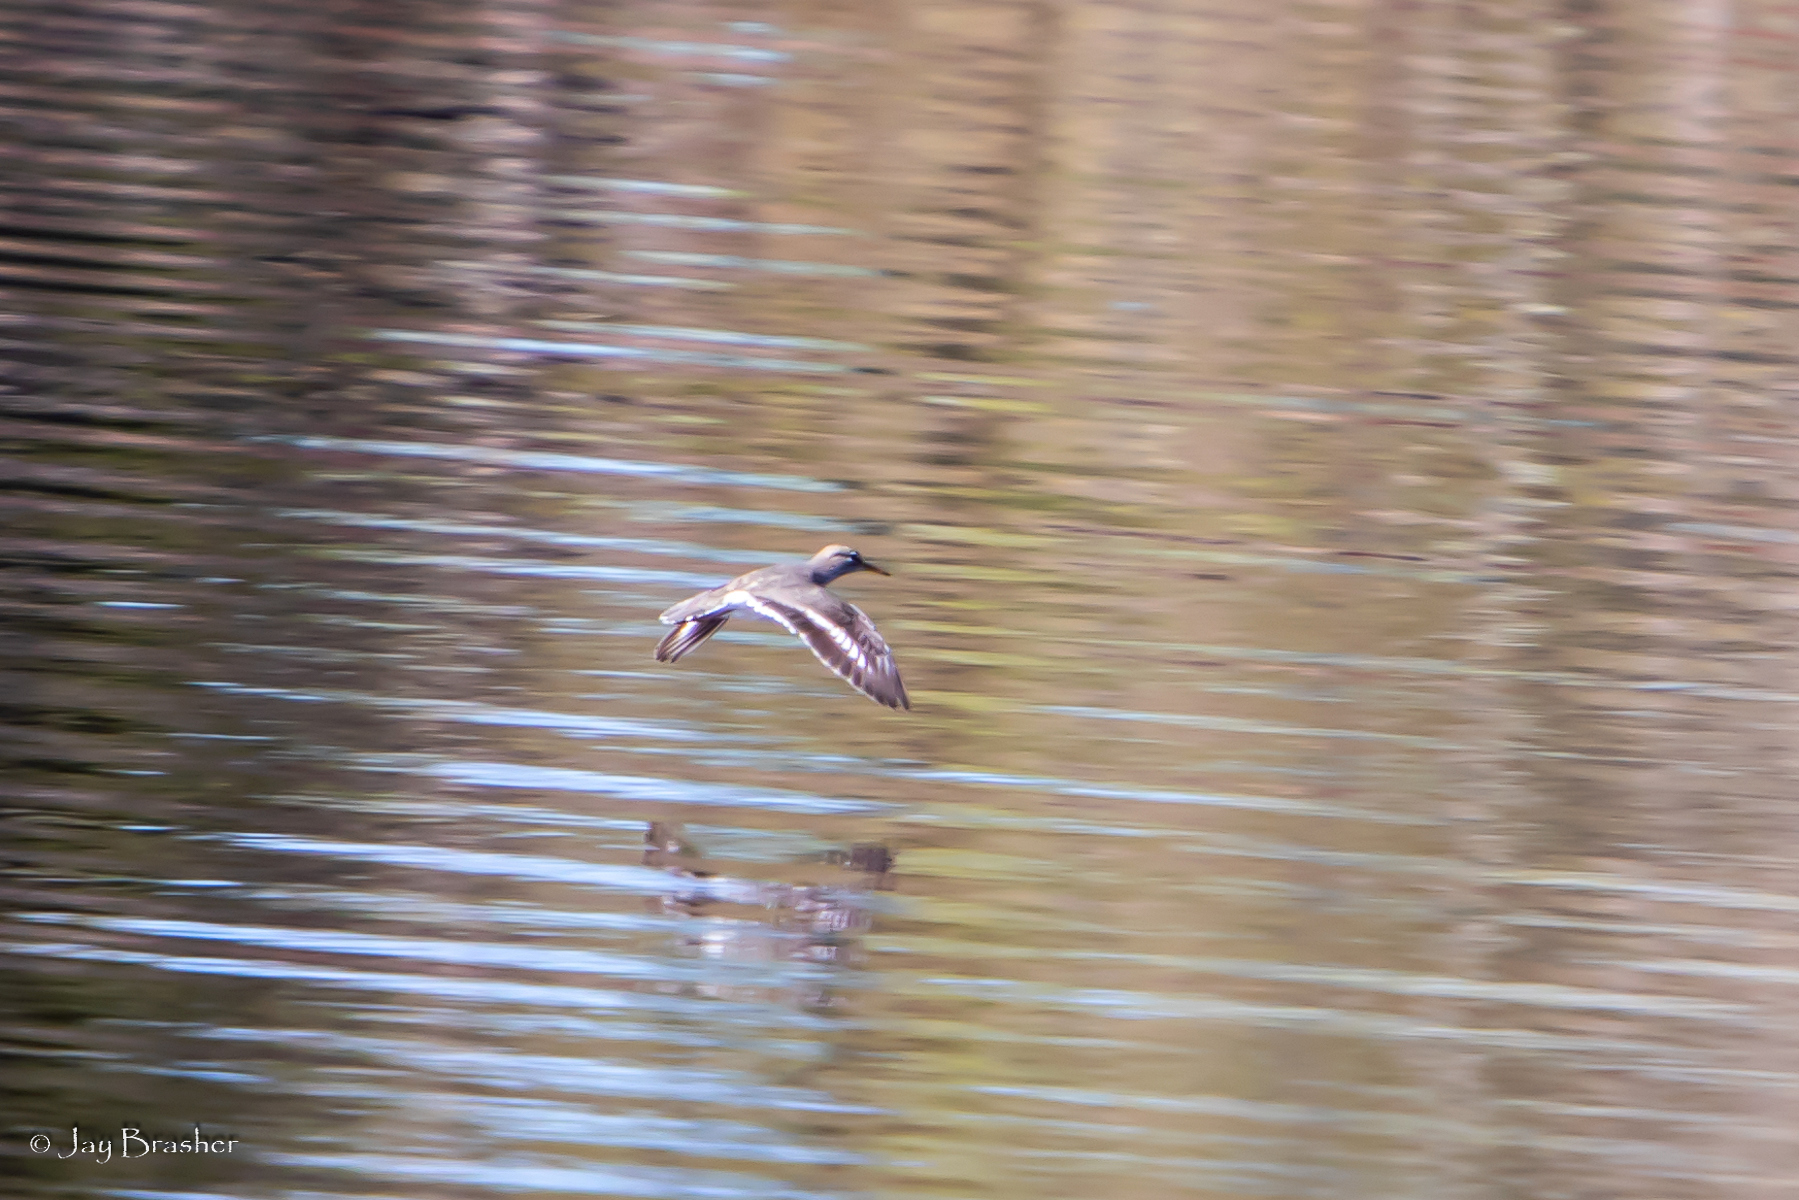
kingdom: Animalia
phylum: Chordata
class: Aves
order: Charadriiformes
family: Scolopacidae
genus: Actitis
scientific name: Actitis macularius
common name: Spotted sandpiper
